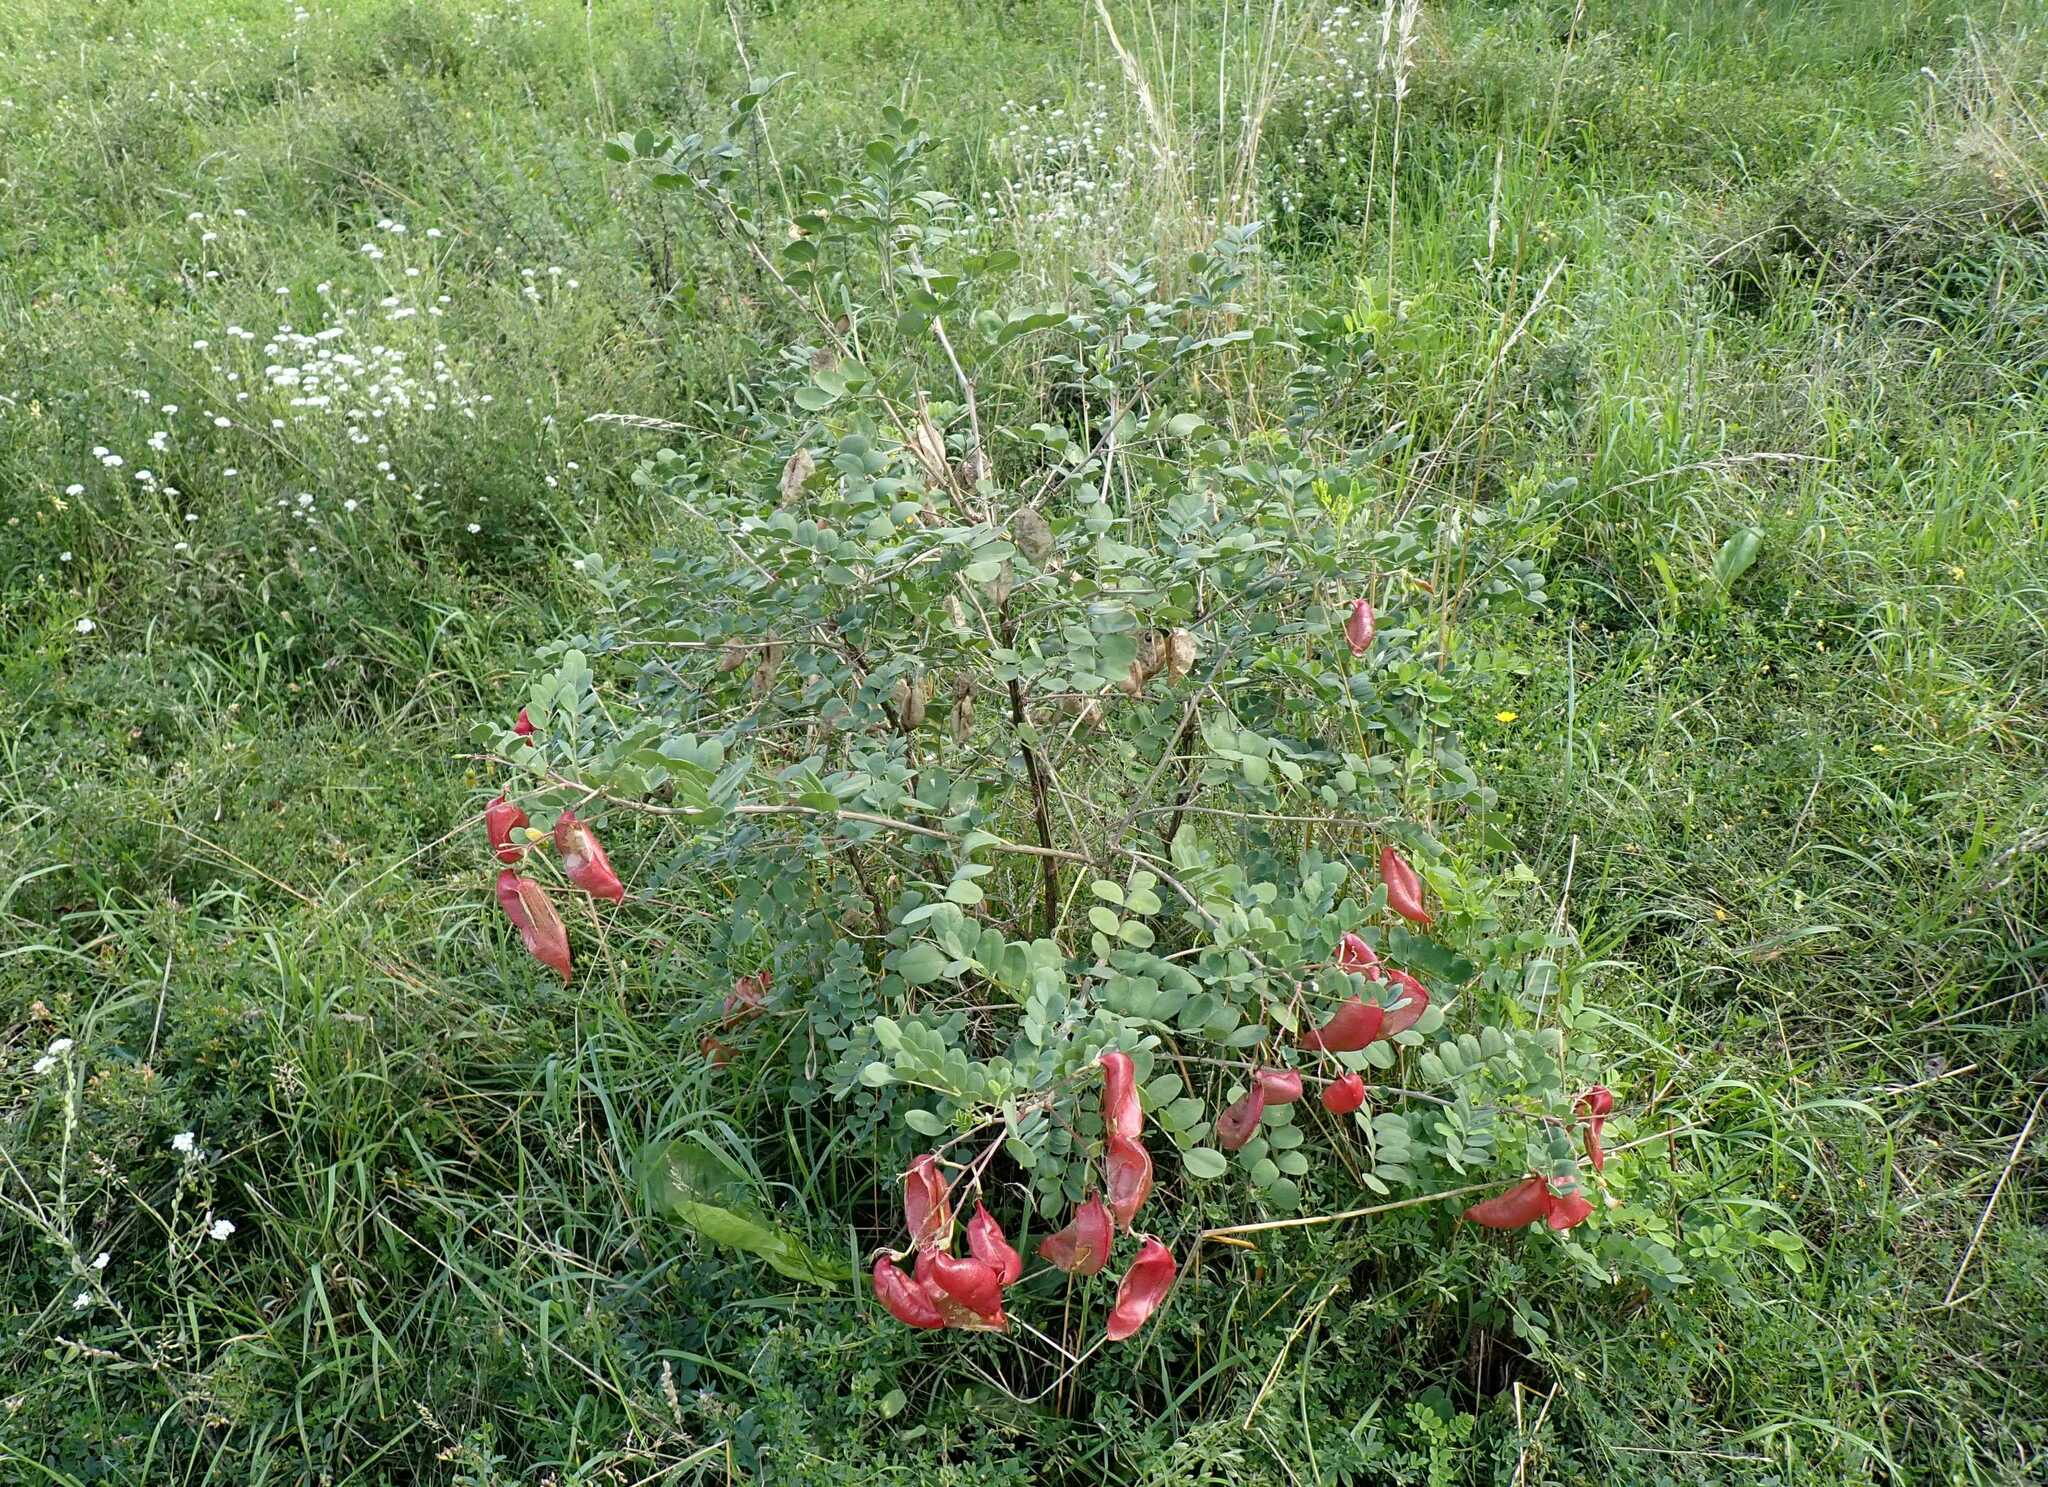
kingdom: Plantae
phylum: Tracheophyta
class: Magnoliopsida
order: Fabales
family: Fabaceae
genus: Colutea
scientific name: Colutea arborescens
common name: Bladder-senna
